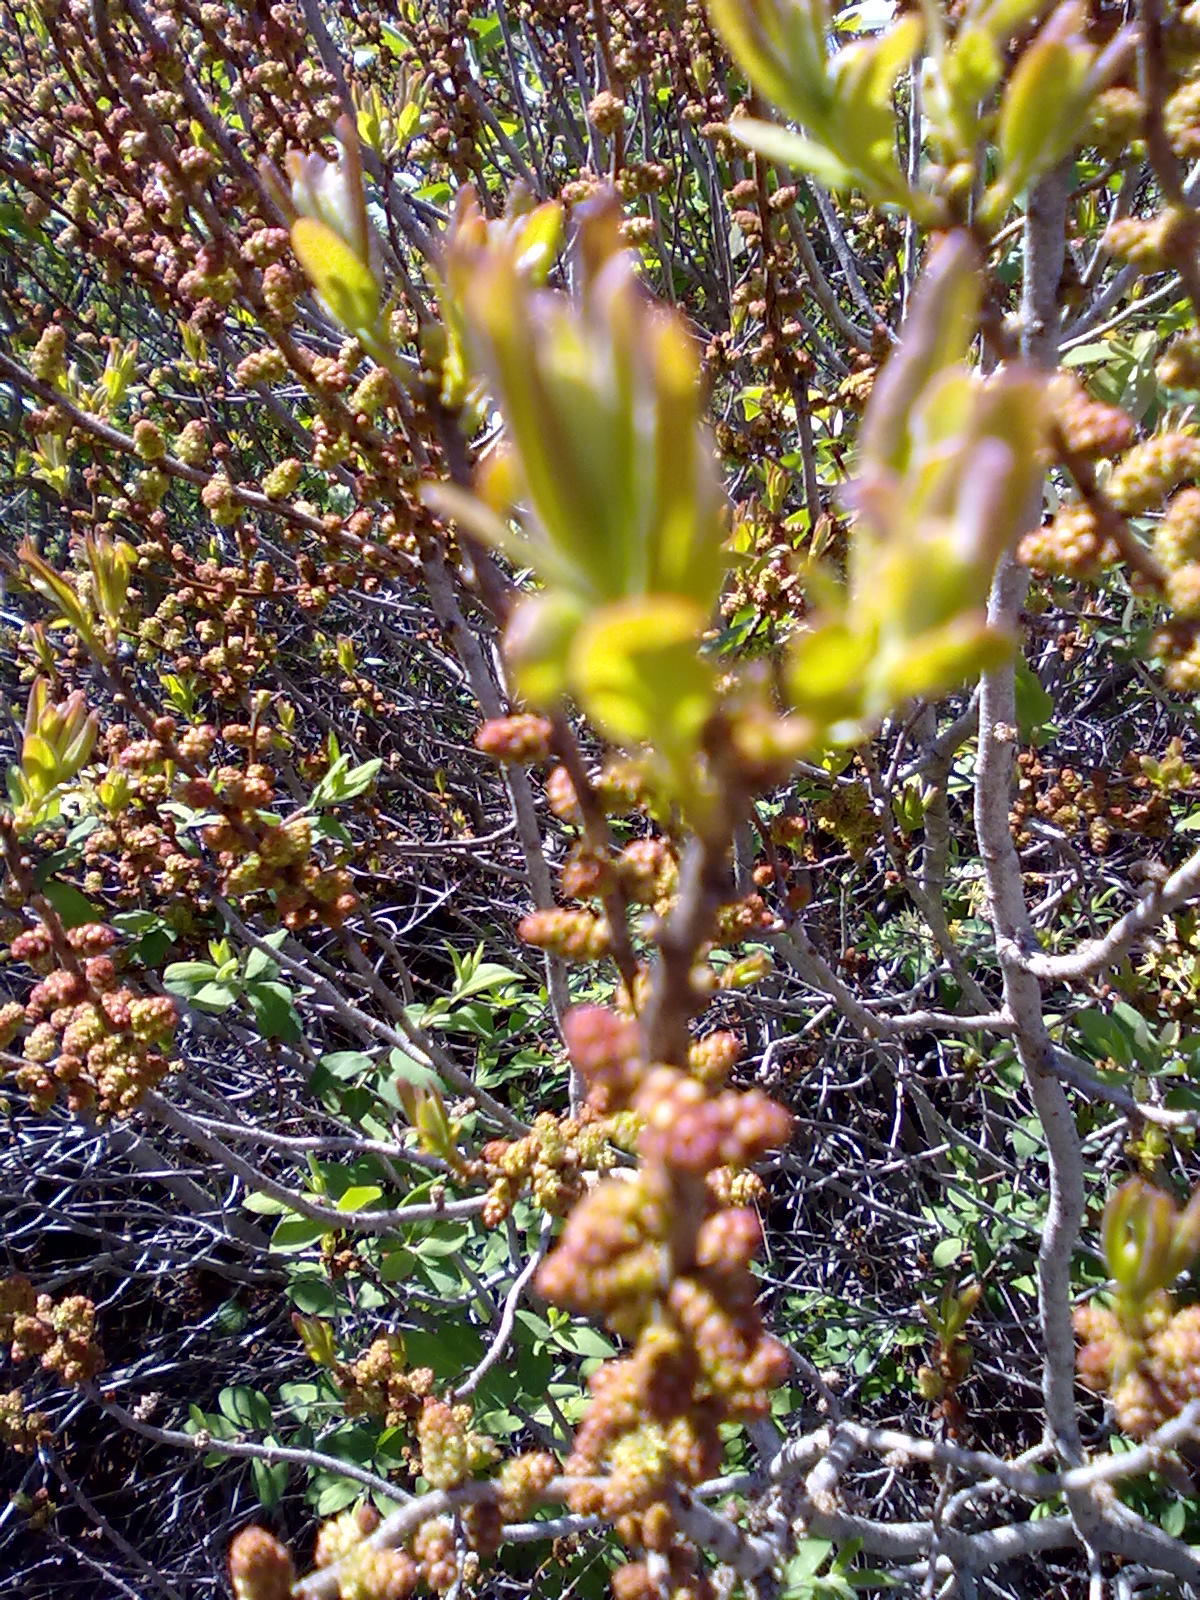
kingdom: Plantae
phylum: Tracheophyta
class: Magnoliopsida
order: Fagales
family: Myricaceae
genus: Morella
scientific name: Morella pensylvanica
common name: Northern bayberry
